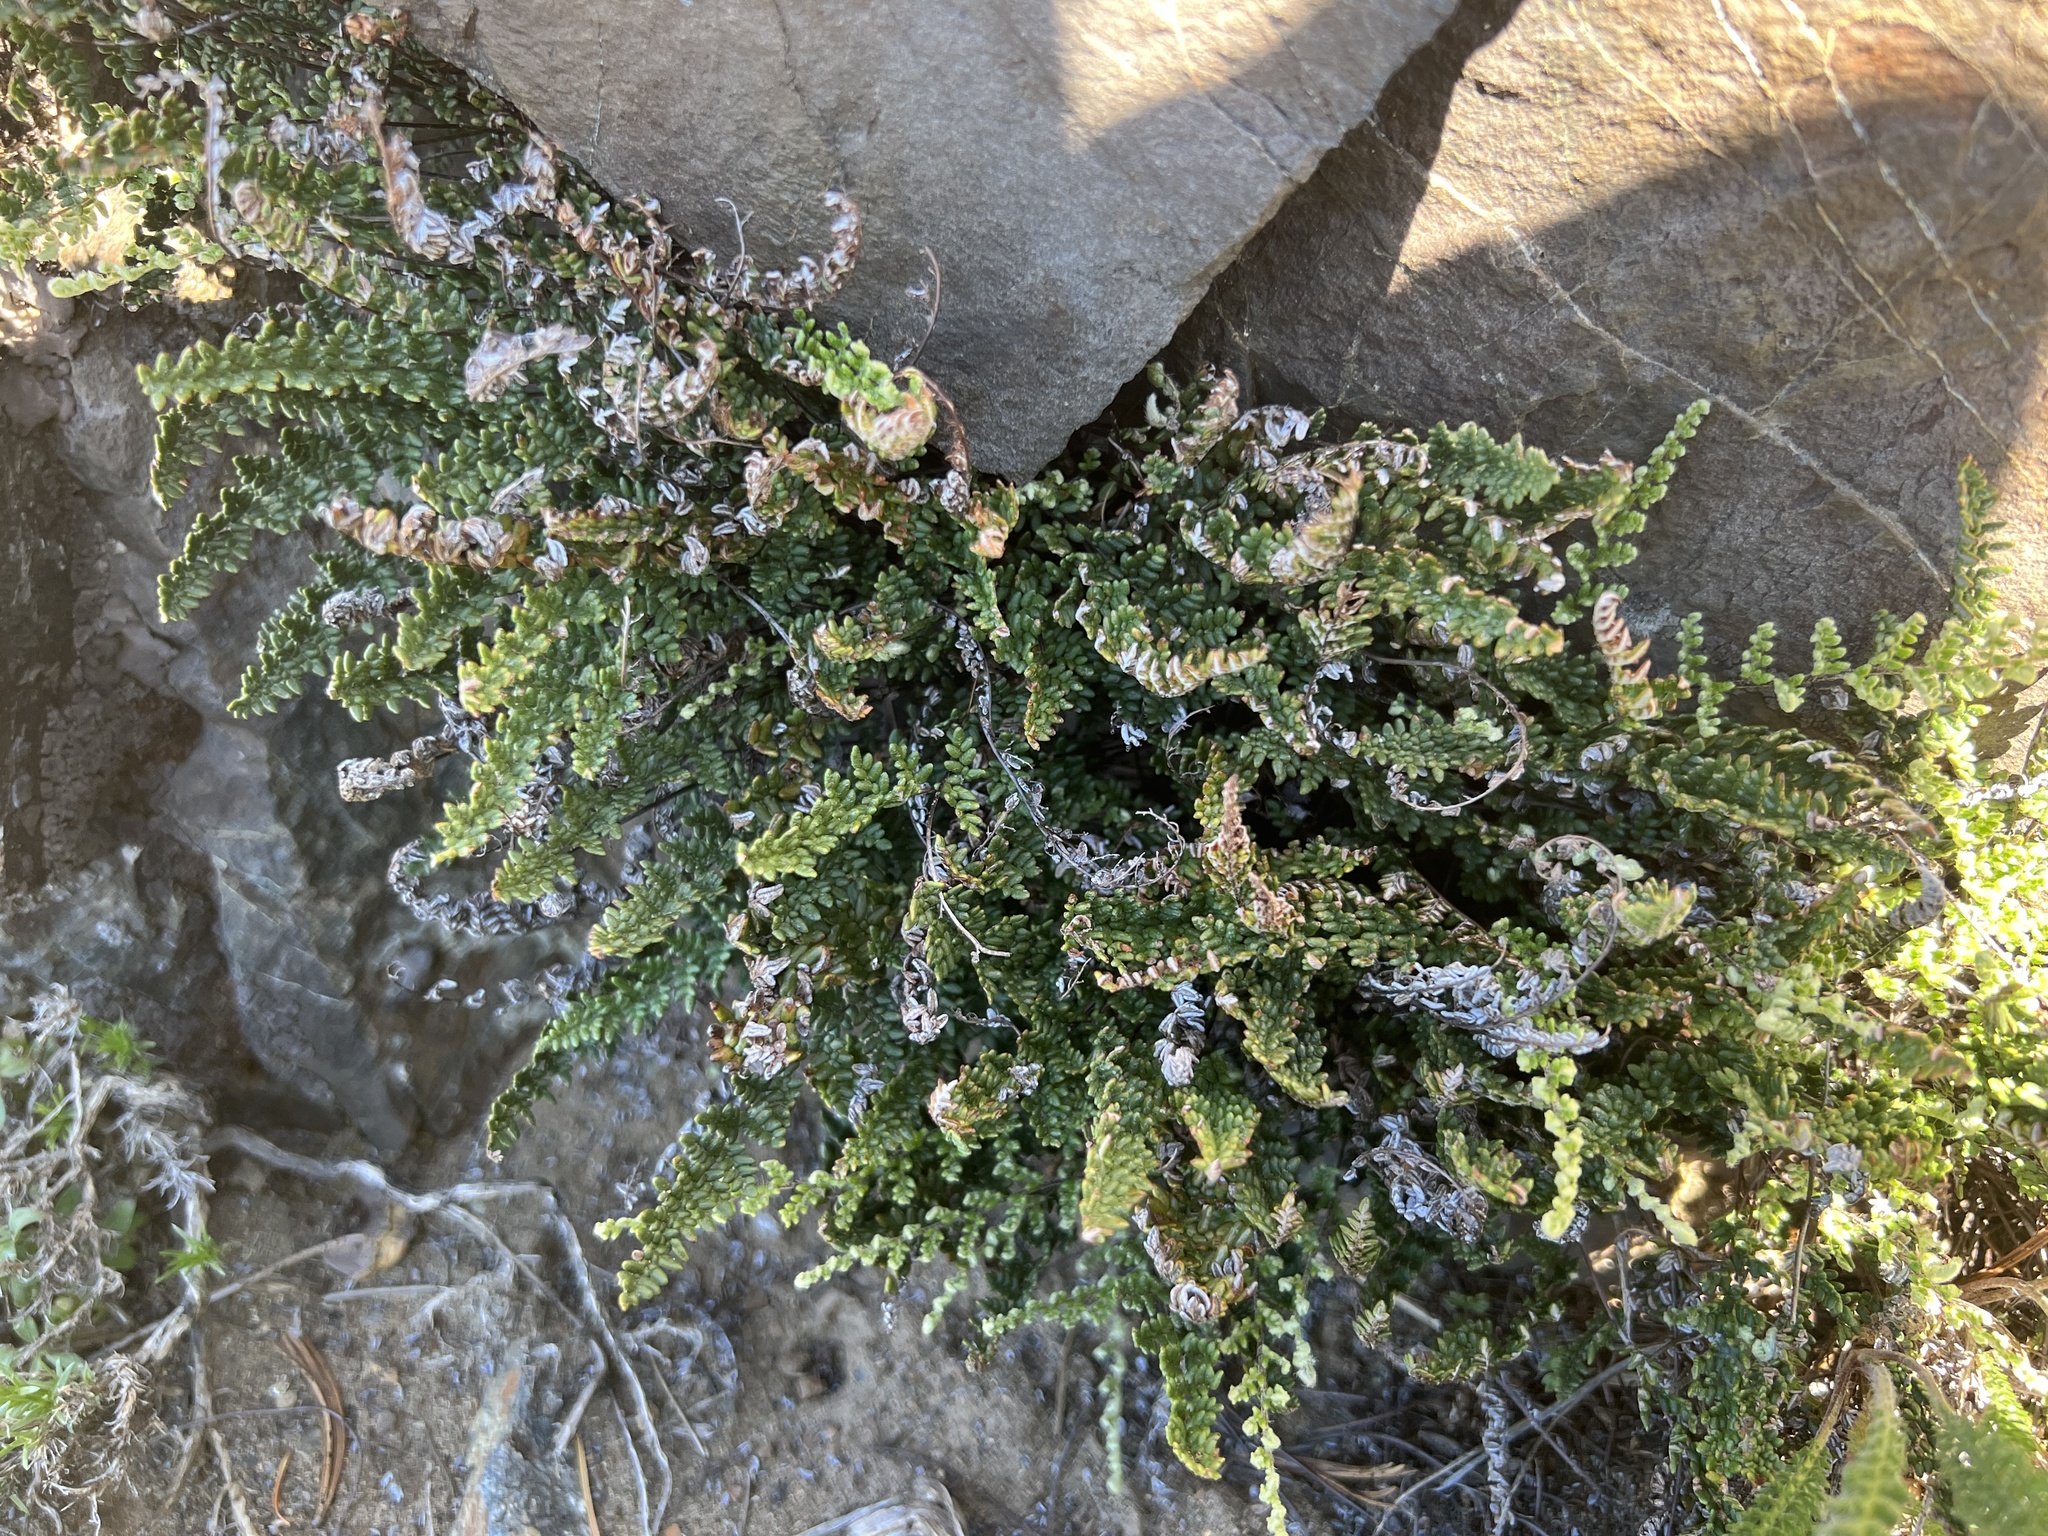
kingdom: Plantae
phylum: Tracheophyta
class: Polypodiopsida
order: Polypodiales
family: Pteridaceae
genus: Myriopteris
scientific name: Myriopteris gracillima
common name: Lace fern
